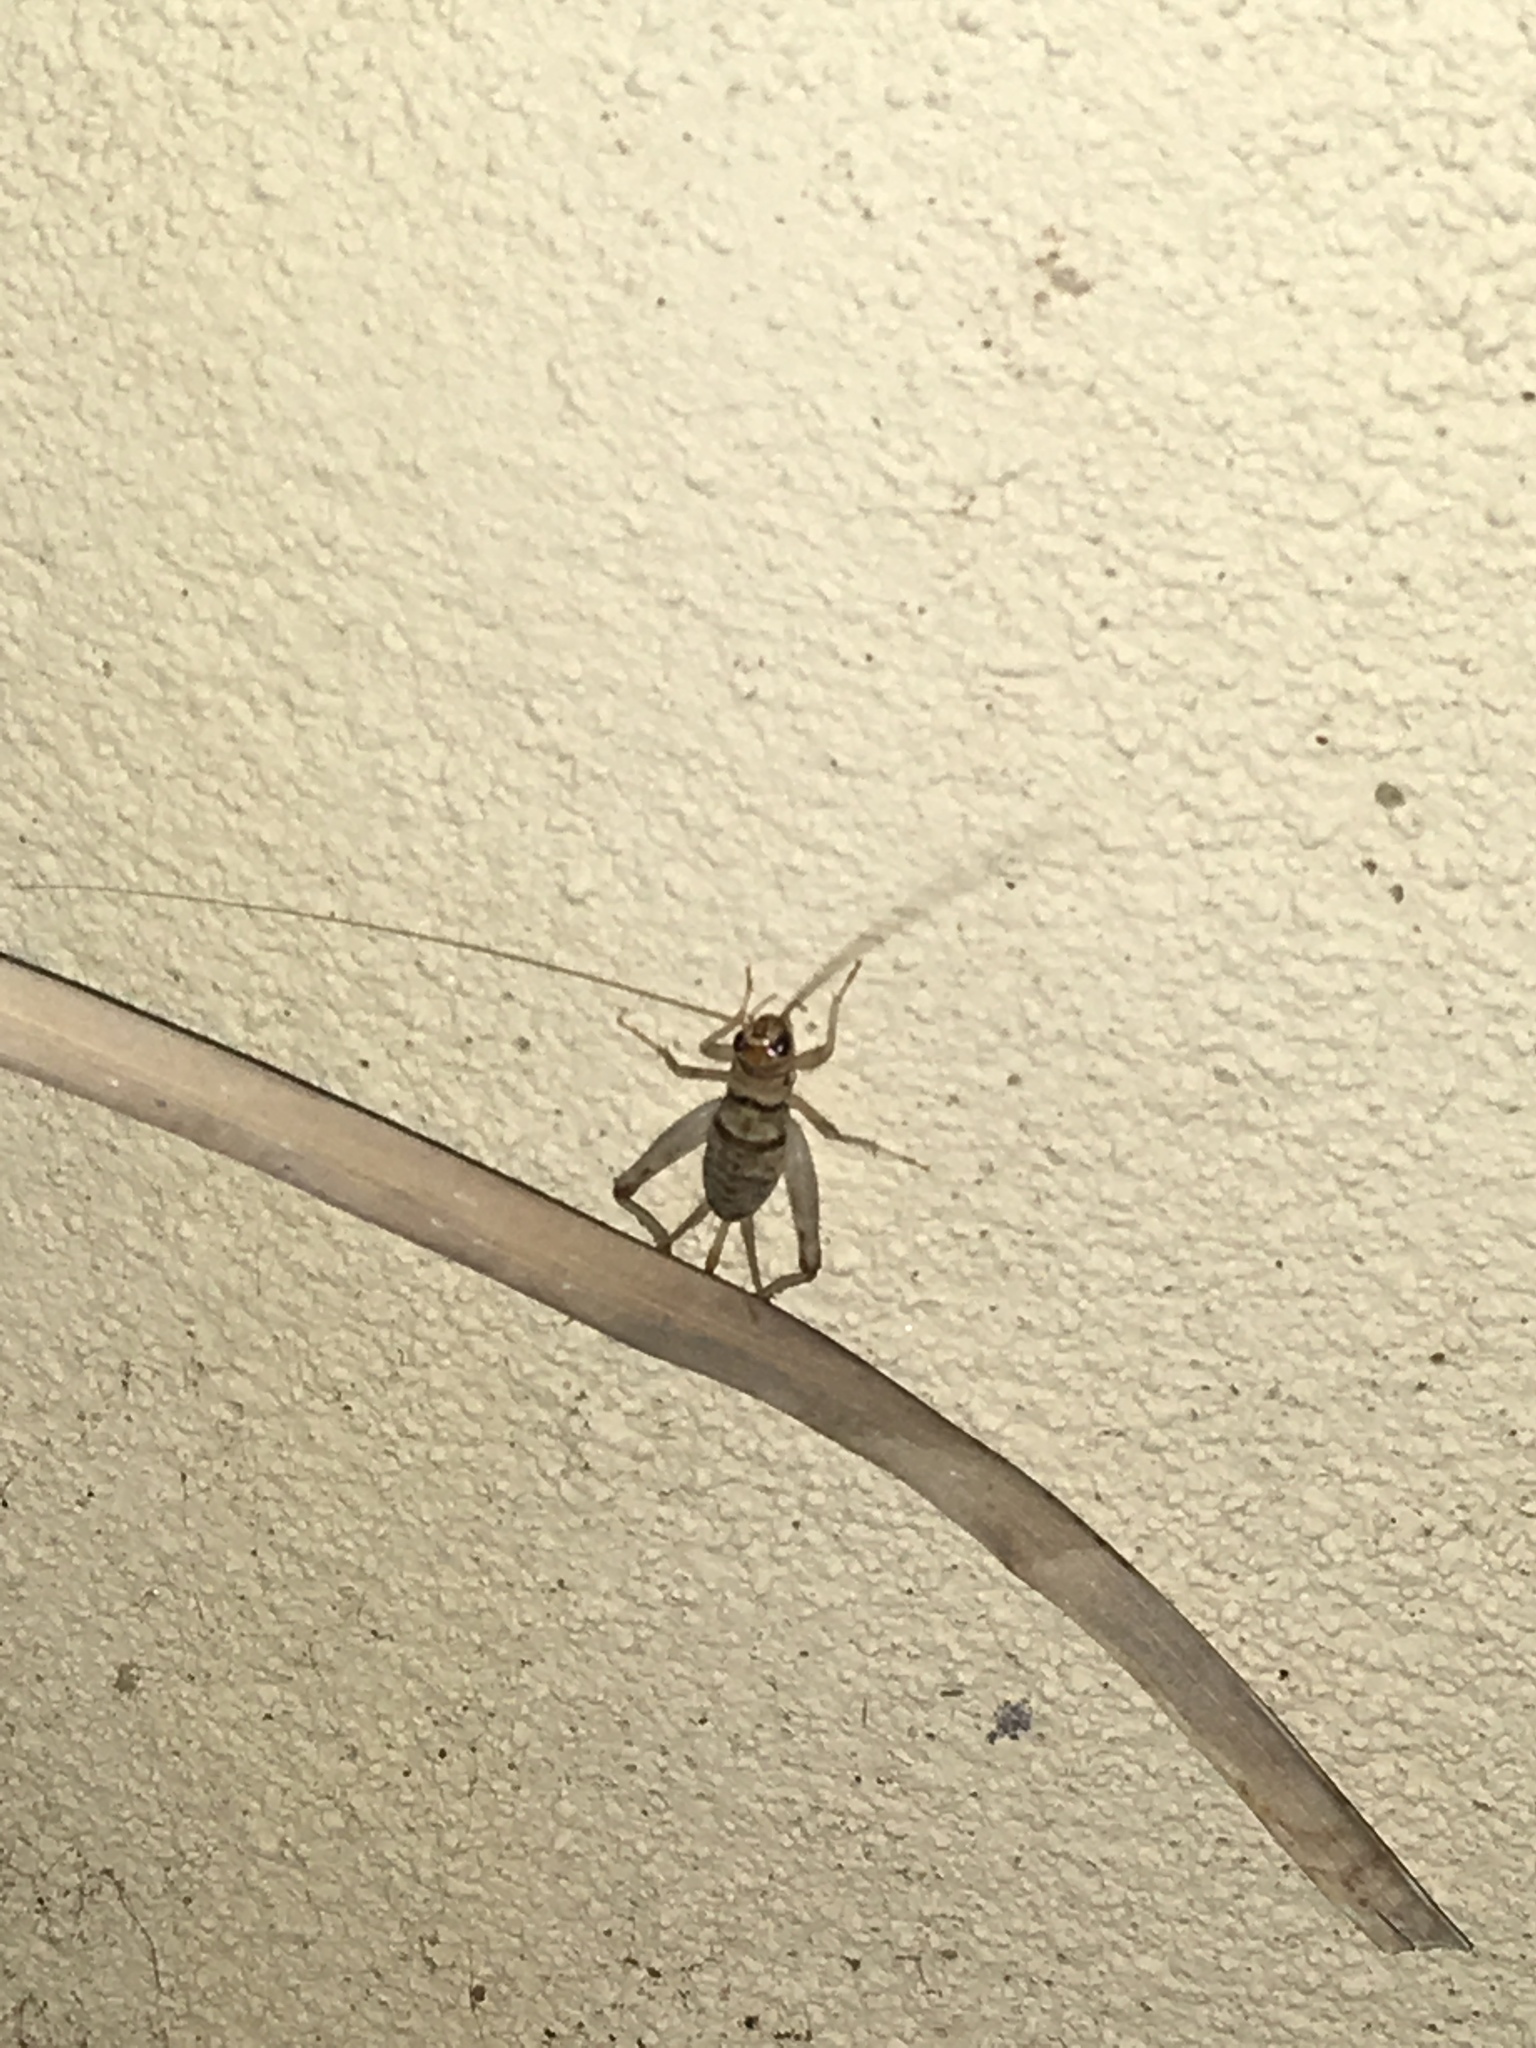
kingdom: Animalia
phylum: Arthropoda
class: Insecta
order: Orthoptera
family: Gryllidae
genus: Gryllodes
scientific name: Gryllodes sigillatus
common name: Tropical house cricket
